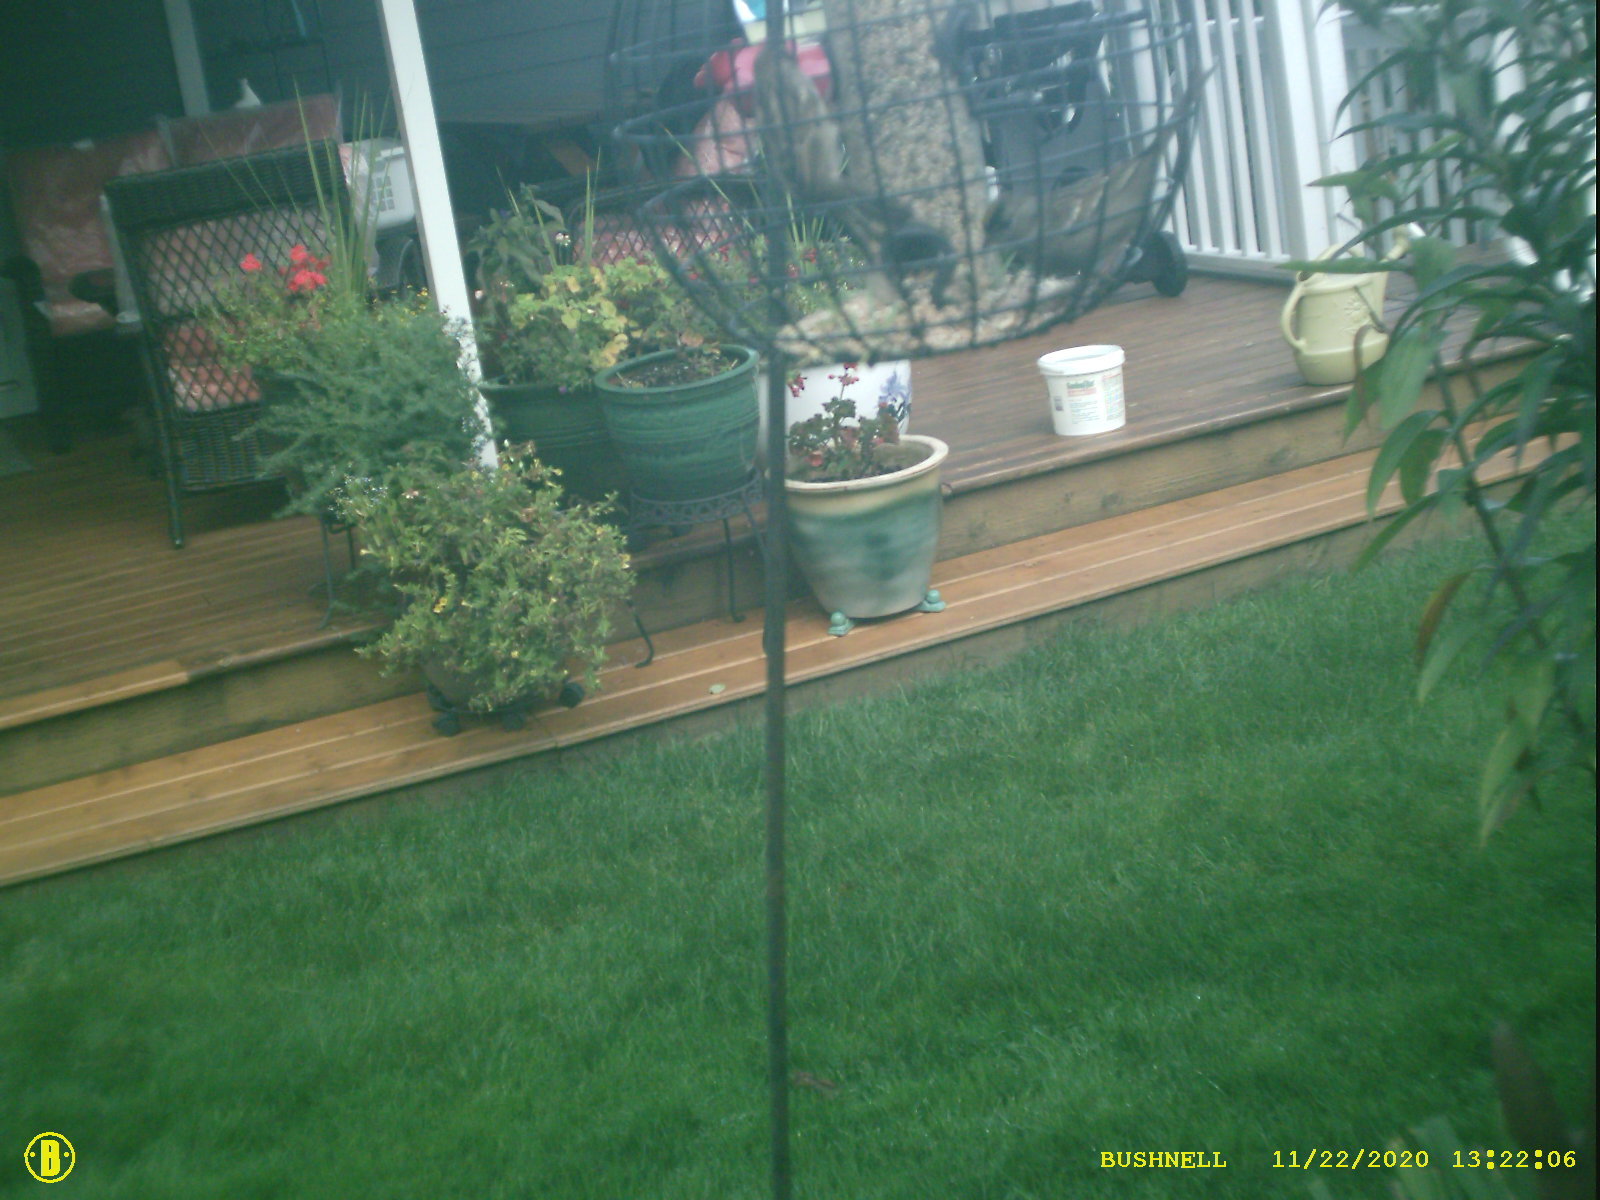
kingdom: Animalia
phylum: Chordata
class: Aves
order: Passeriformes
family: Passerellidae
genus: Zonotrichia
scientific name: Zonotrichia atricapilla
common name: Golden-crowned sparrow
